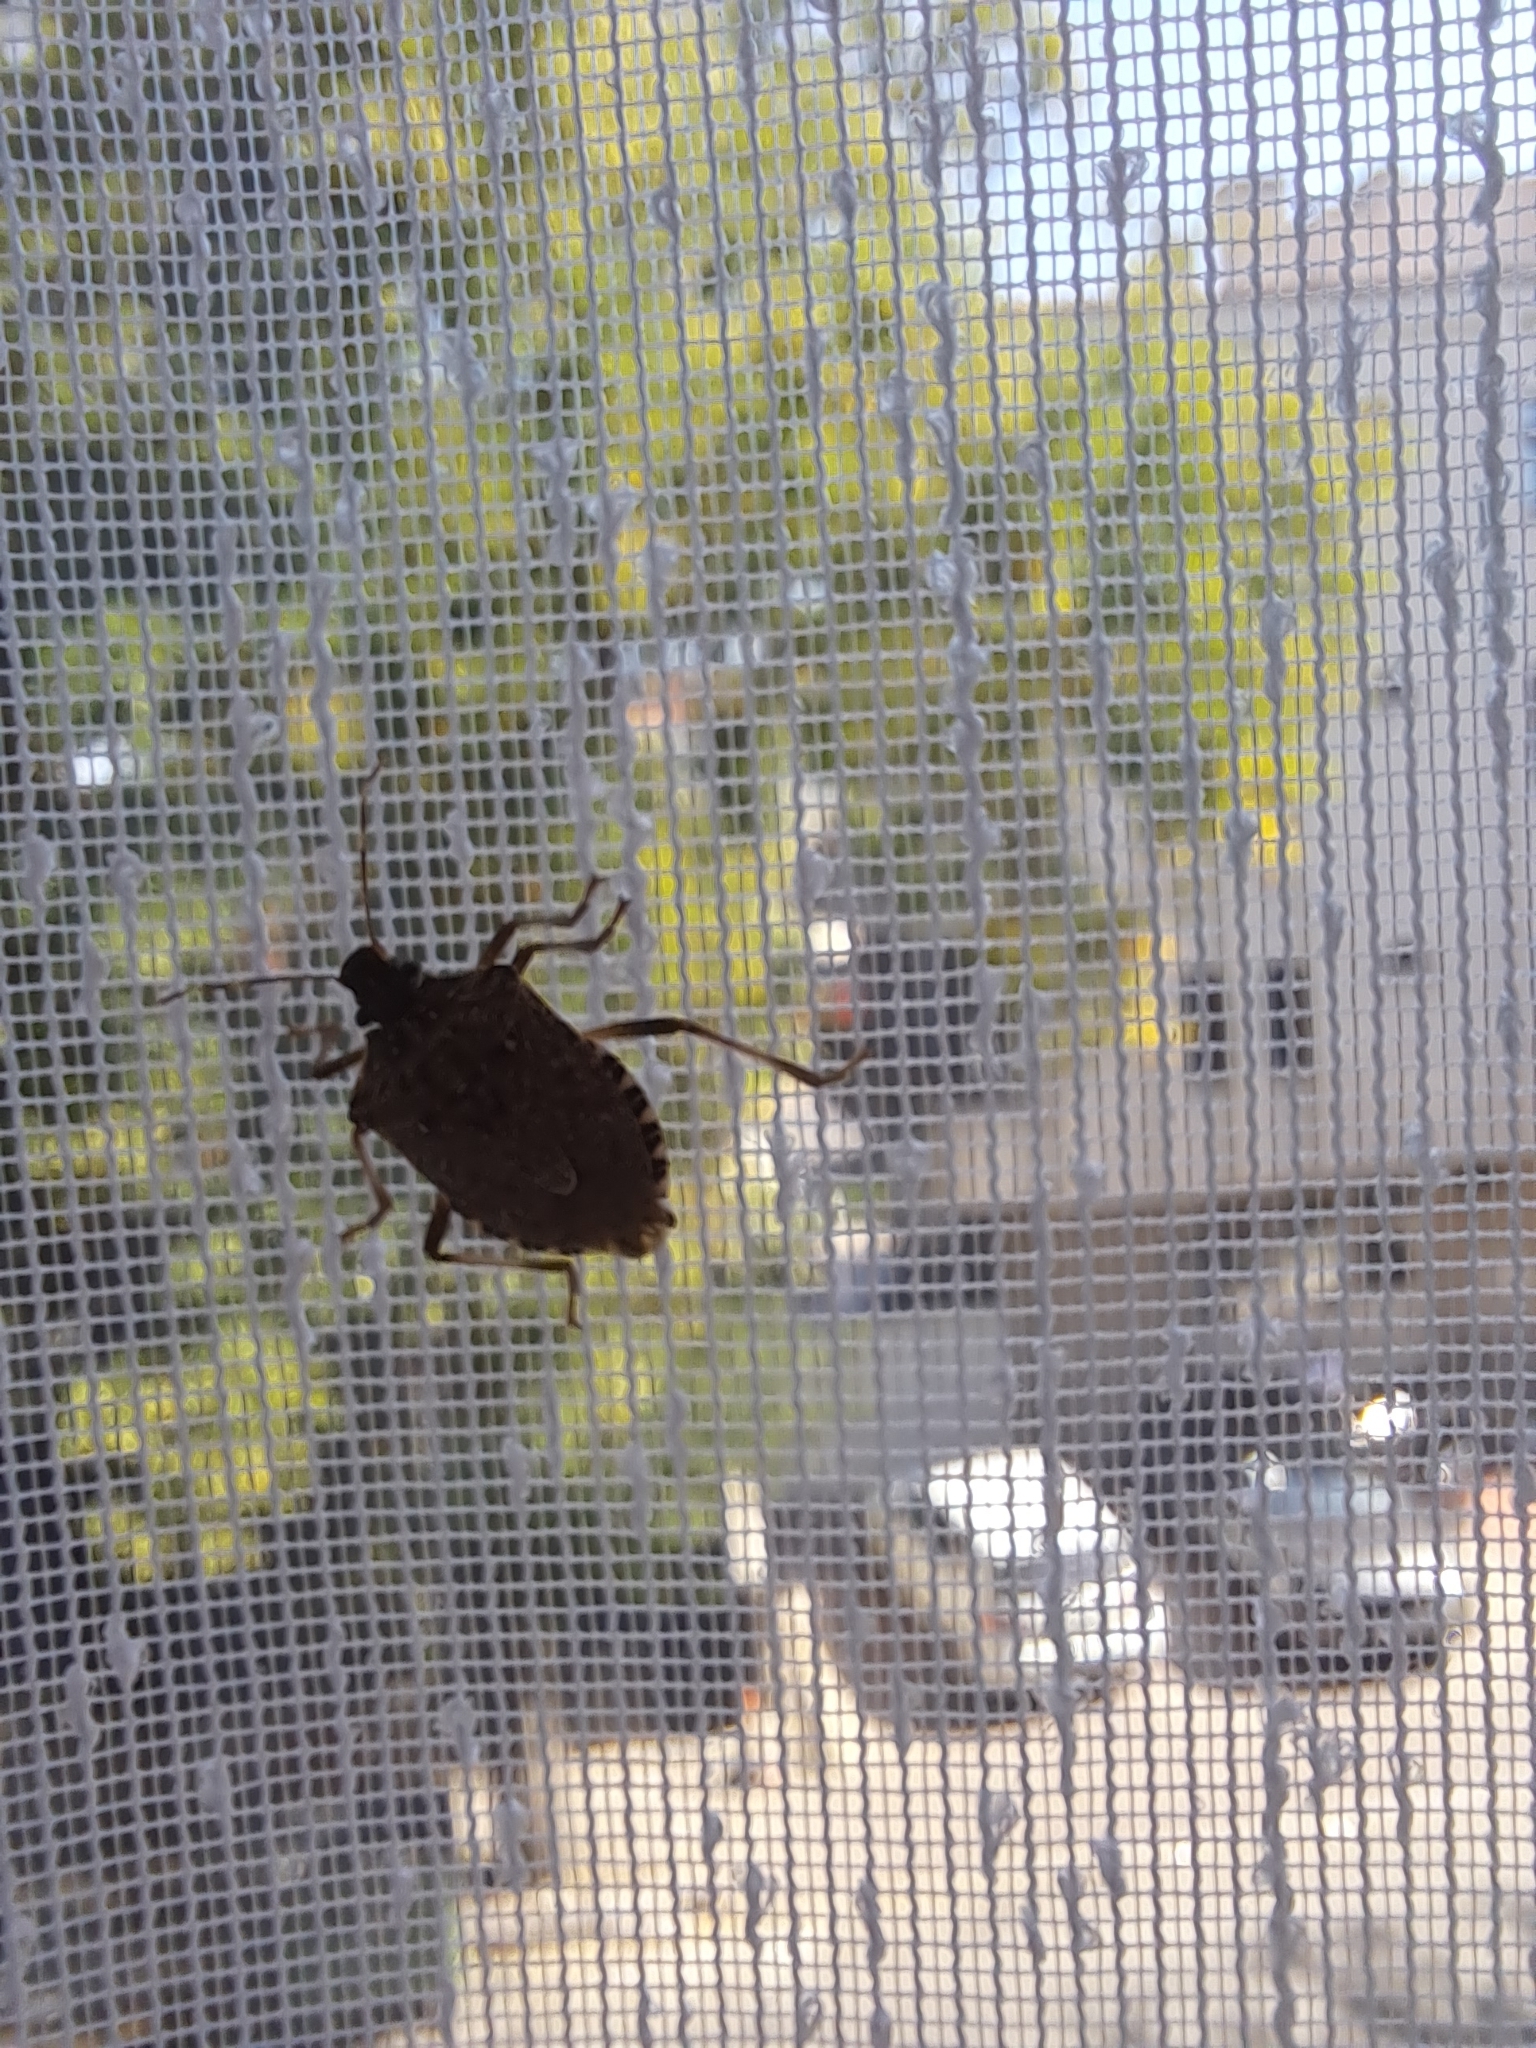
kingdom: Animalia
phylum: Arthropoda
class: Insecta
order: Hemiptera
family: Pentatomidae
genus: Halyomorpha
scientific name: Halyomorpha halys
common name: Brown marmorated stink bug
